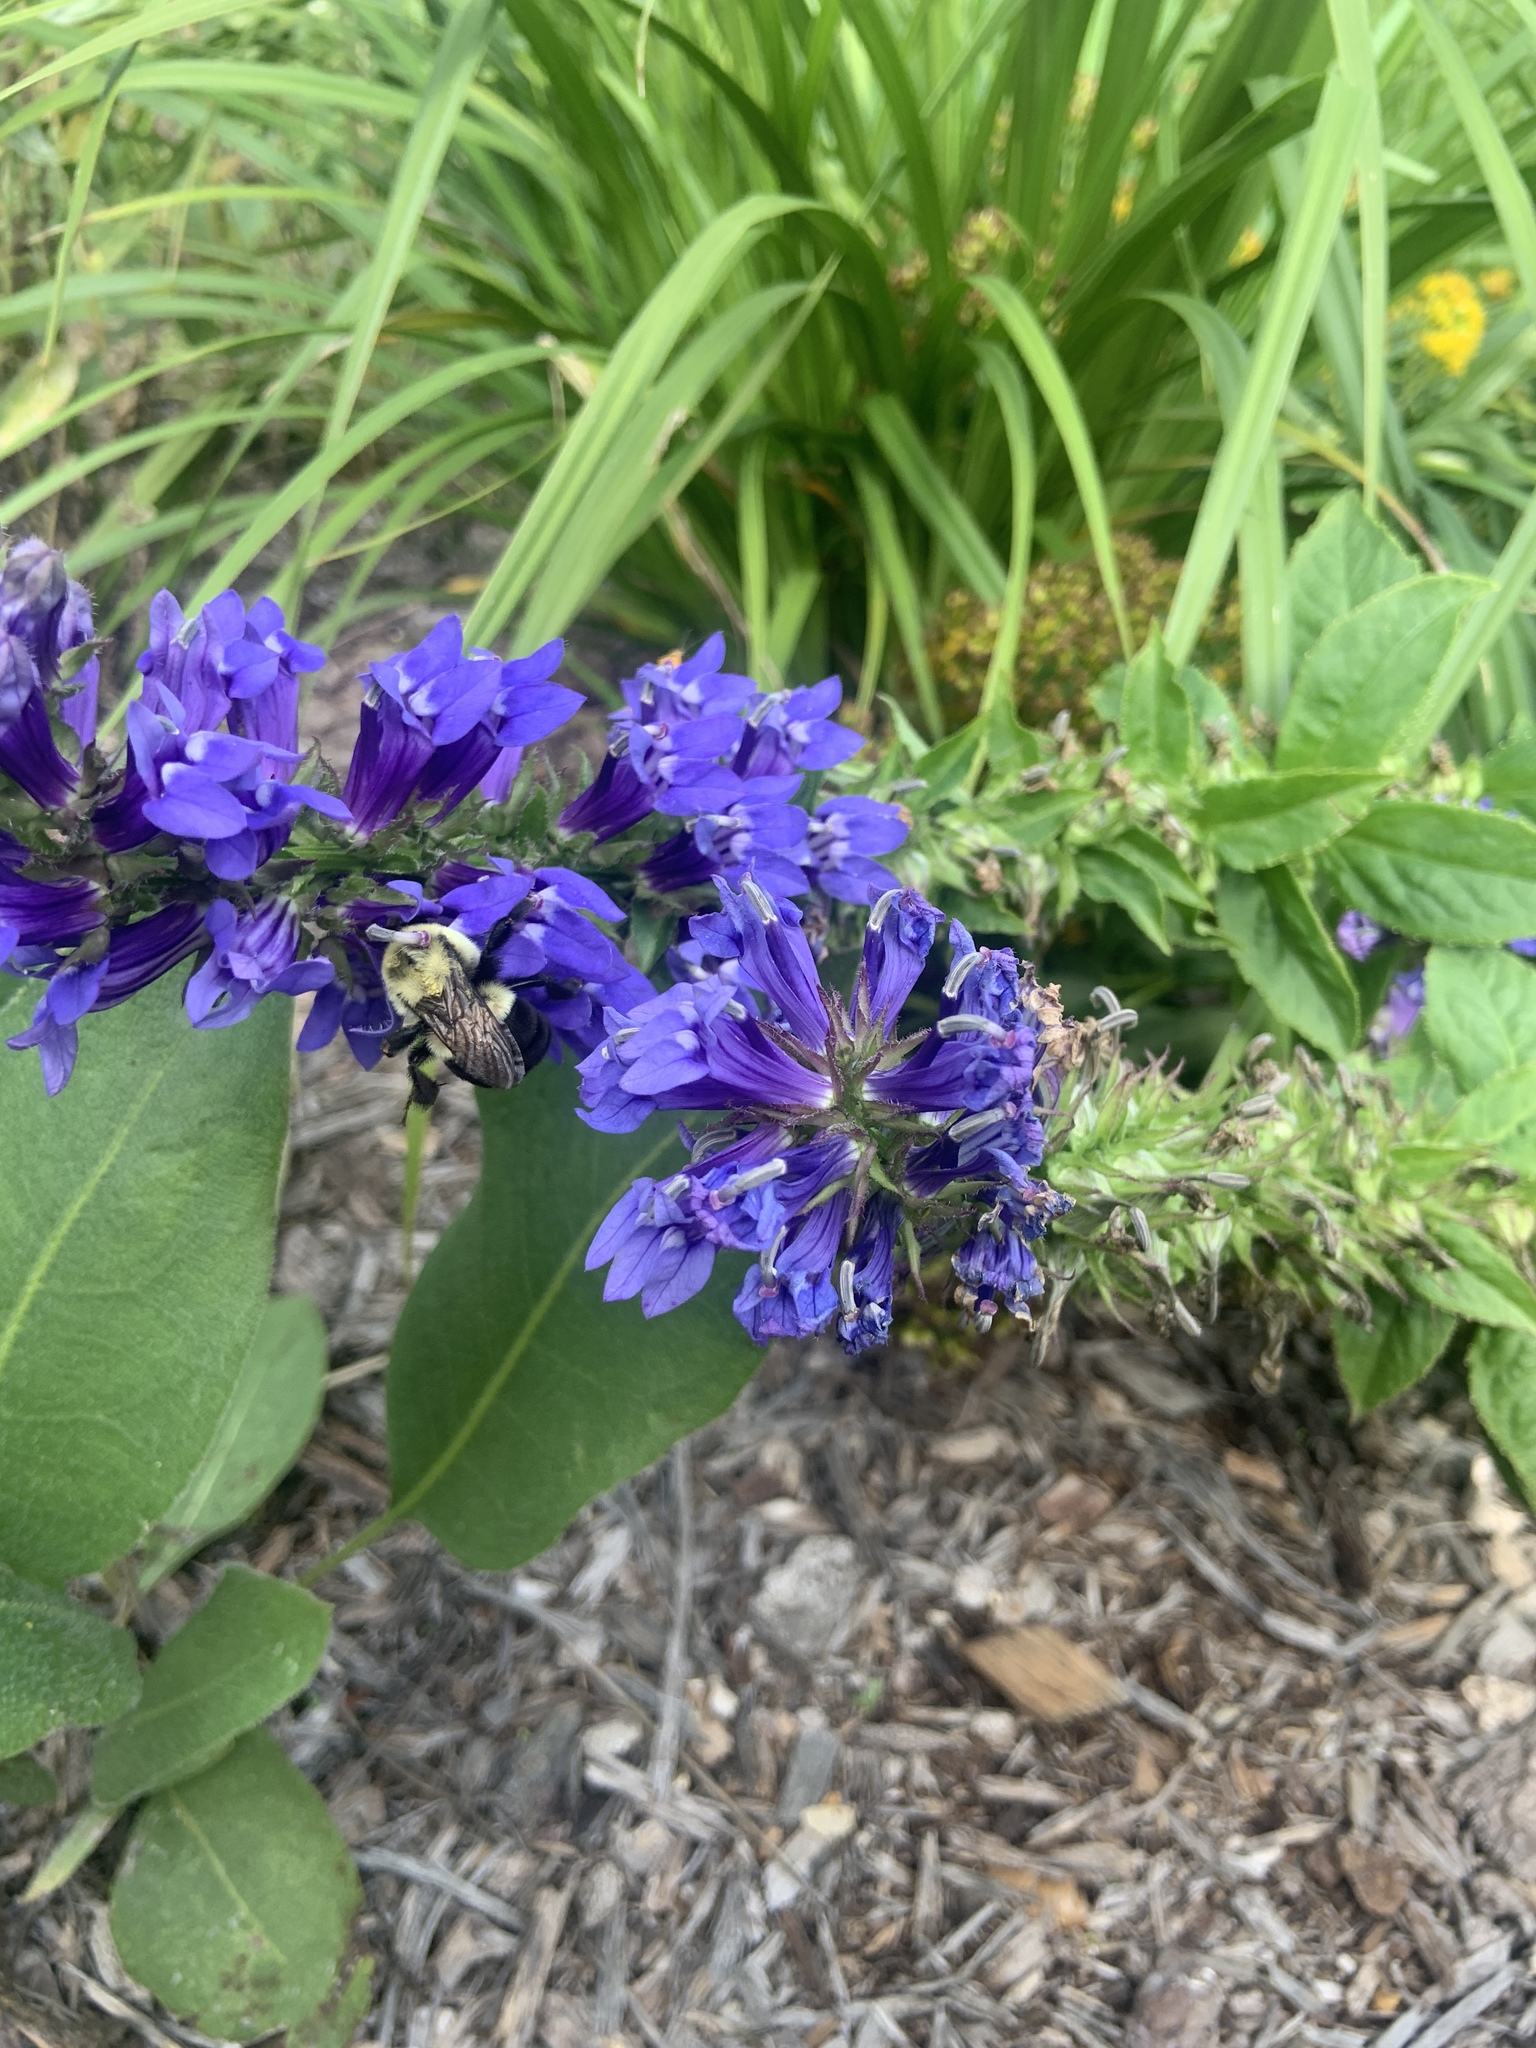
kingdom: Animalia
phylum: Arthropoda
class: Insecta
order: Hymenoptera
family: Apidae
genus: Bombus
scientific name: Bombus impatiens
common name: Common eastern bumble bee
